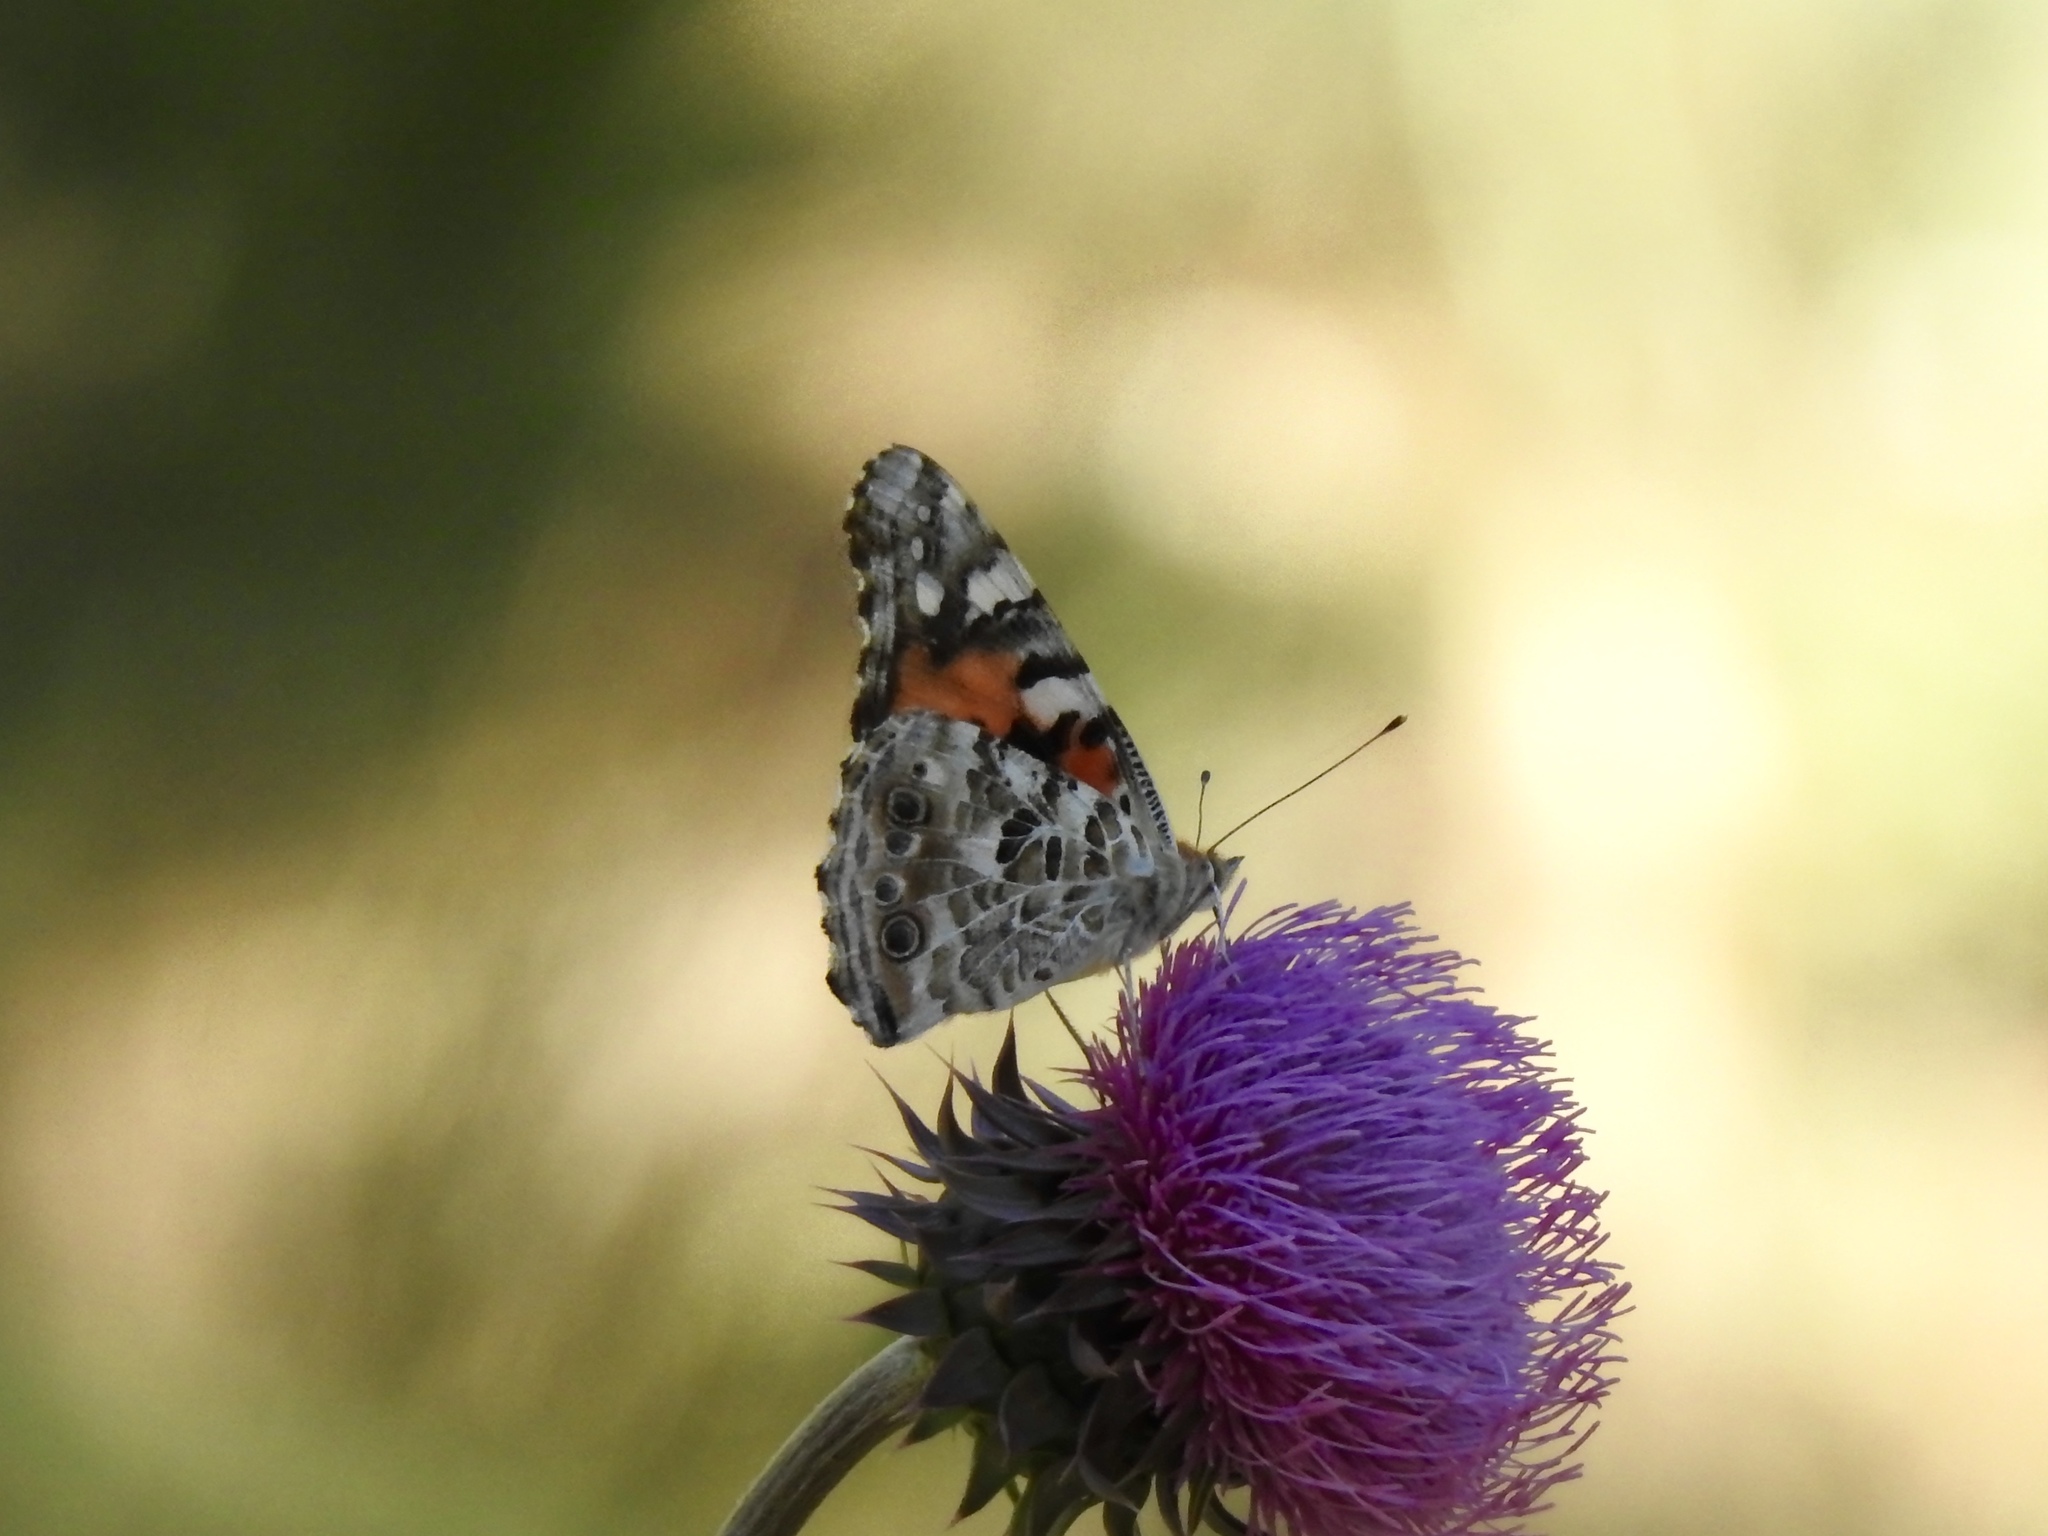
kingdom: Animalia
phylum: Arthropoda
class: Insecta
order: Lepidoptera
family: Nymphalidae
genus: Vanessa
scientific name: Vanessa cardui
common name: Painted lady
